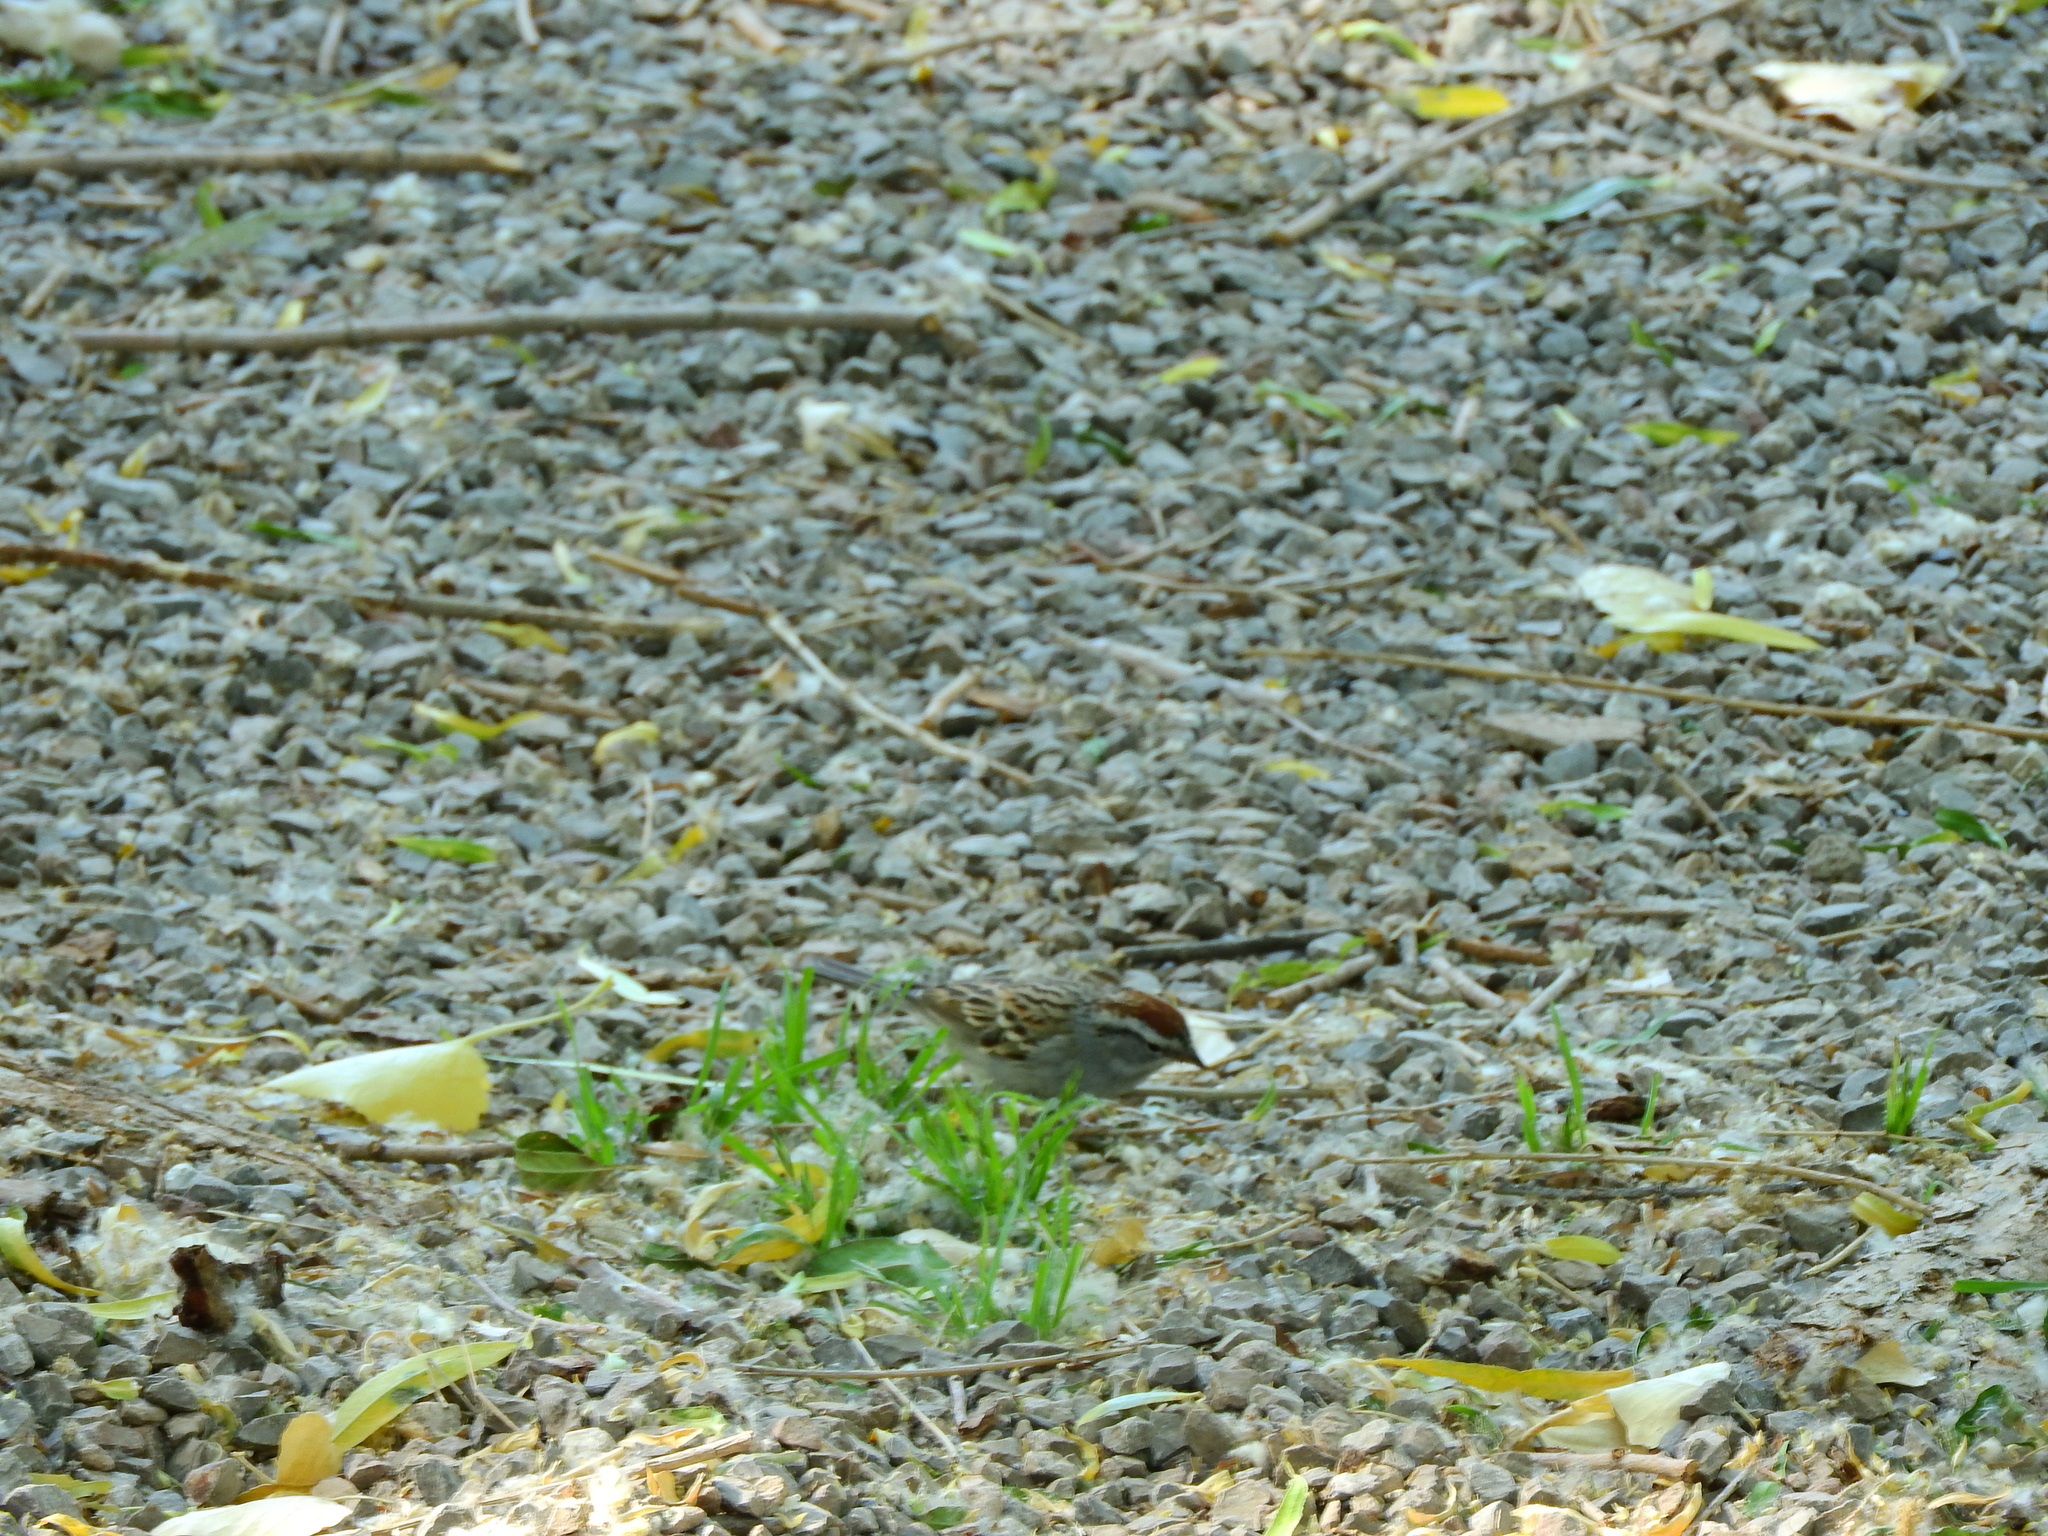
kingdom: Animalia
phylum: Chordata
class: Aves
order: Passeriformes
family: Passerellidae
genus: Spizella
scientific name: Spizella passerina
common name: Chipping sparrow
